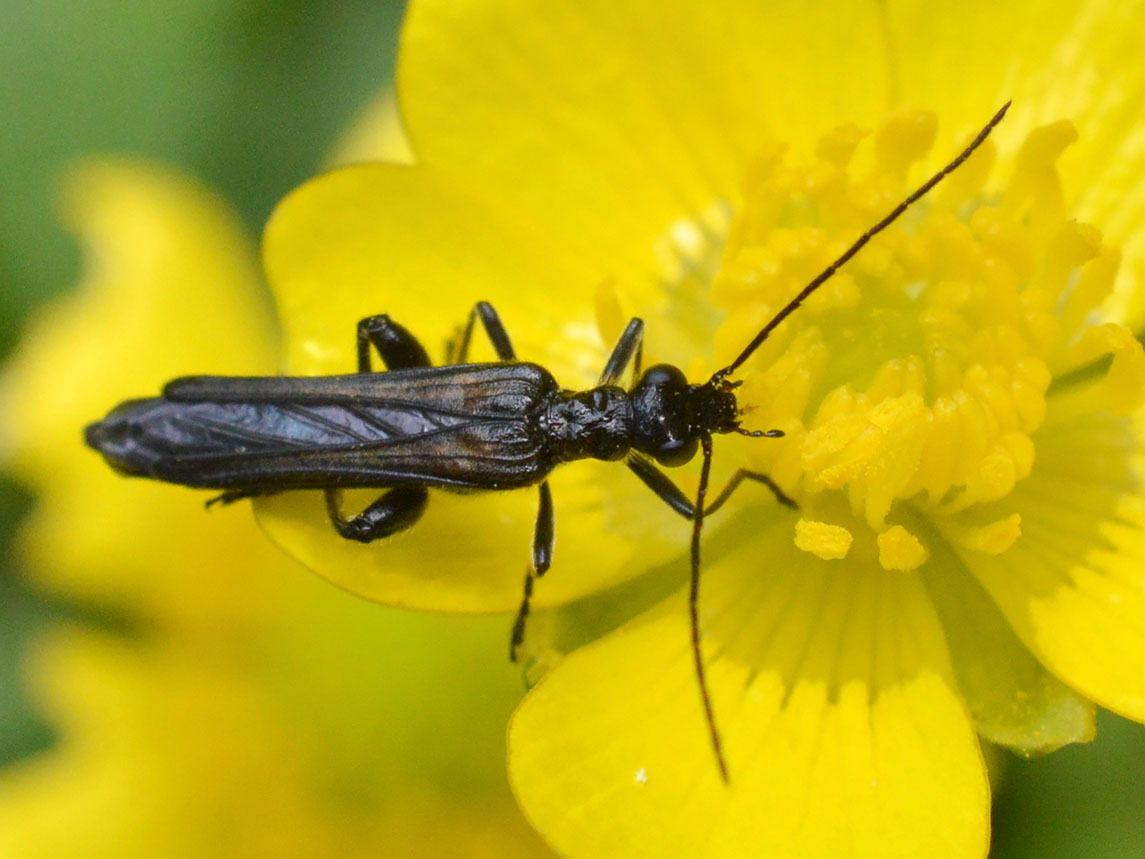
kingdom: Animalia
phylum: Arthropoda
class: Insecta
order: Coleoptera
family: Oedemeridae
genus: Oedemera
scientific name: Oedemera pthysica
